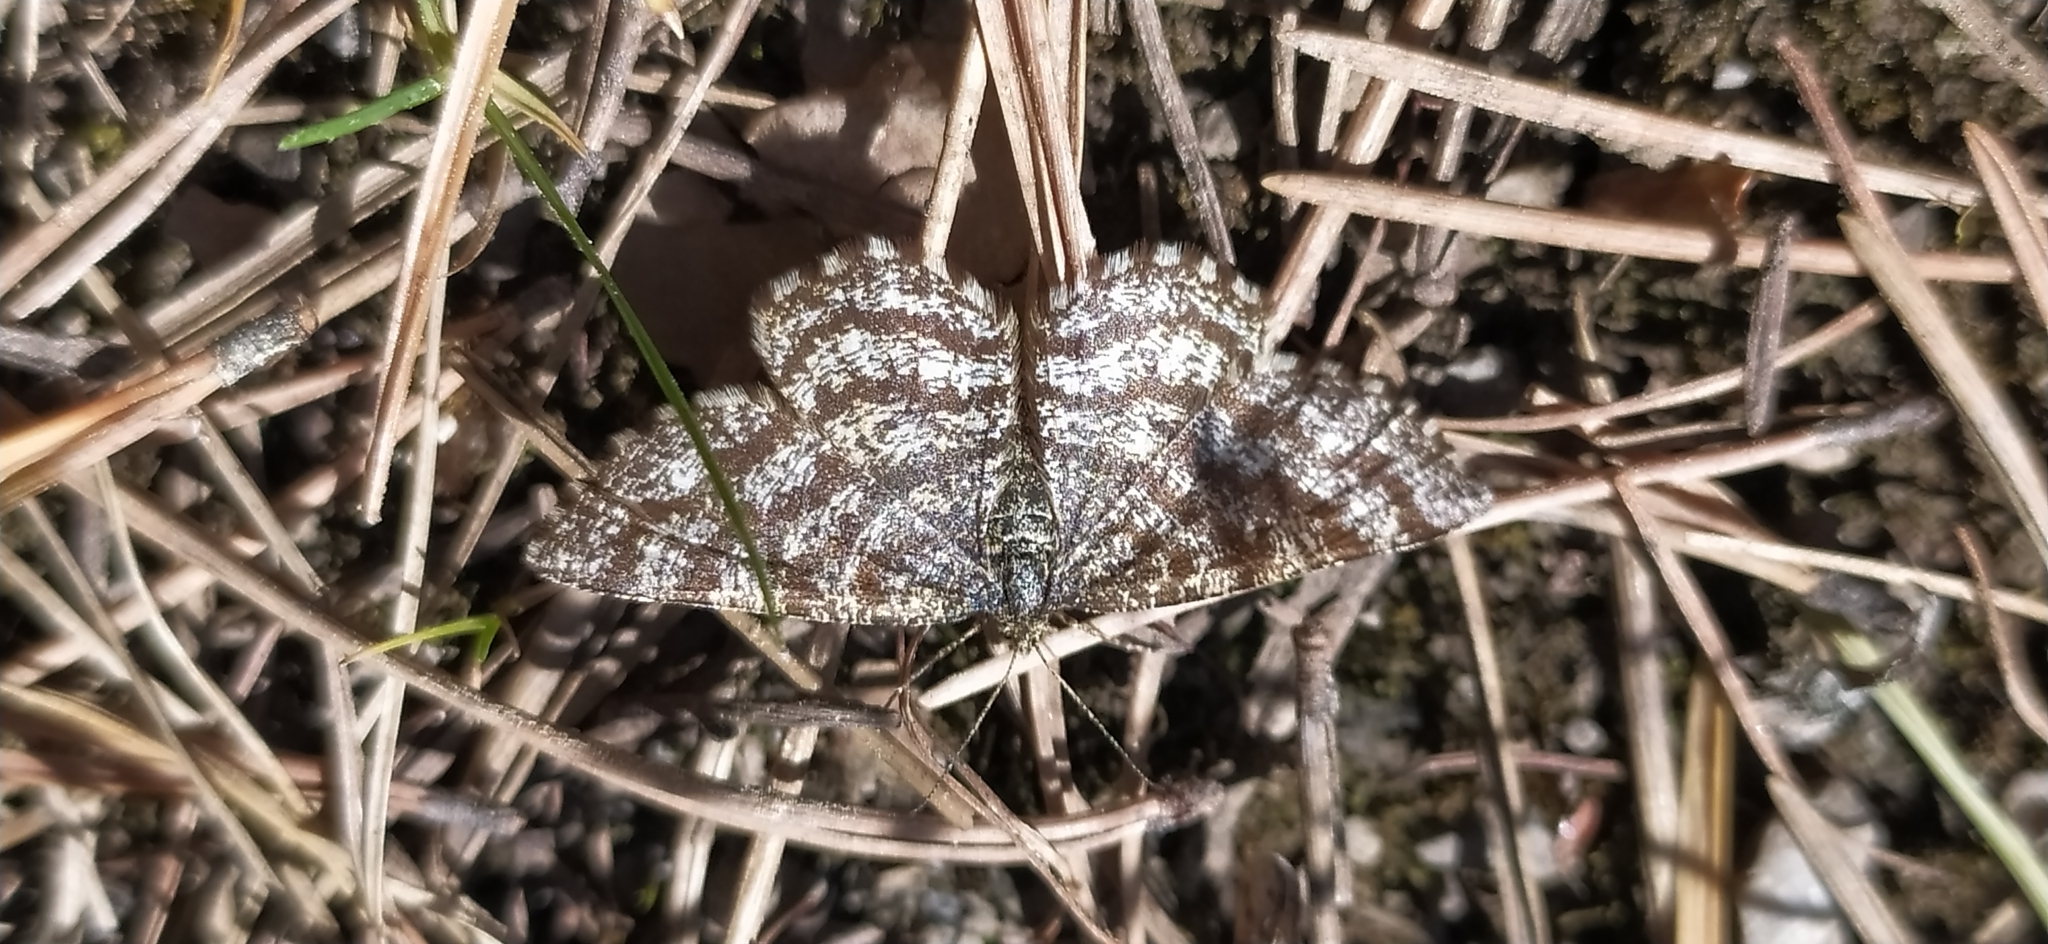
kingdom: Animalia
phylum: Arthropoda
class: Insecta
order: Lepidoptera
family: Geometridae
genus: Ematurga
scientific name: Ematurga atomaria
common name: Common heath
